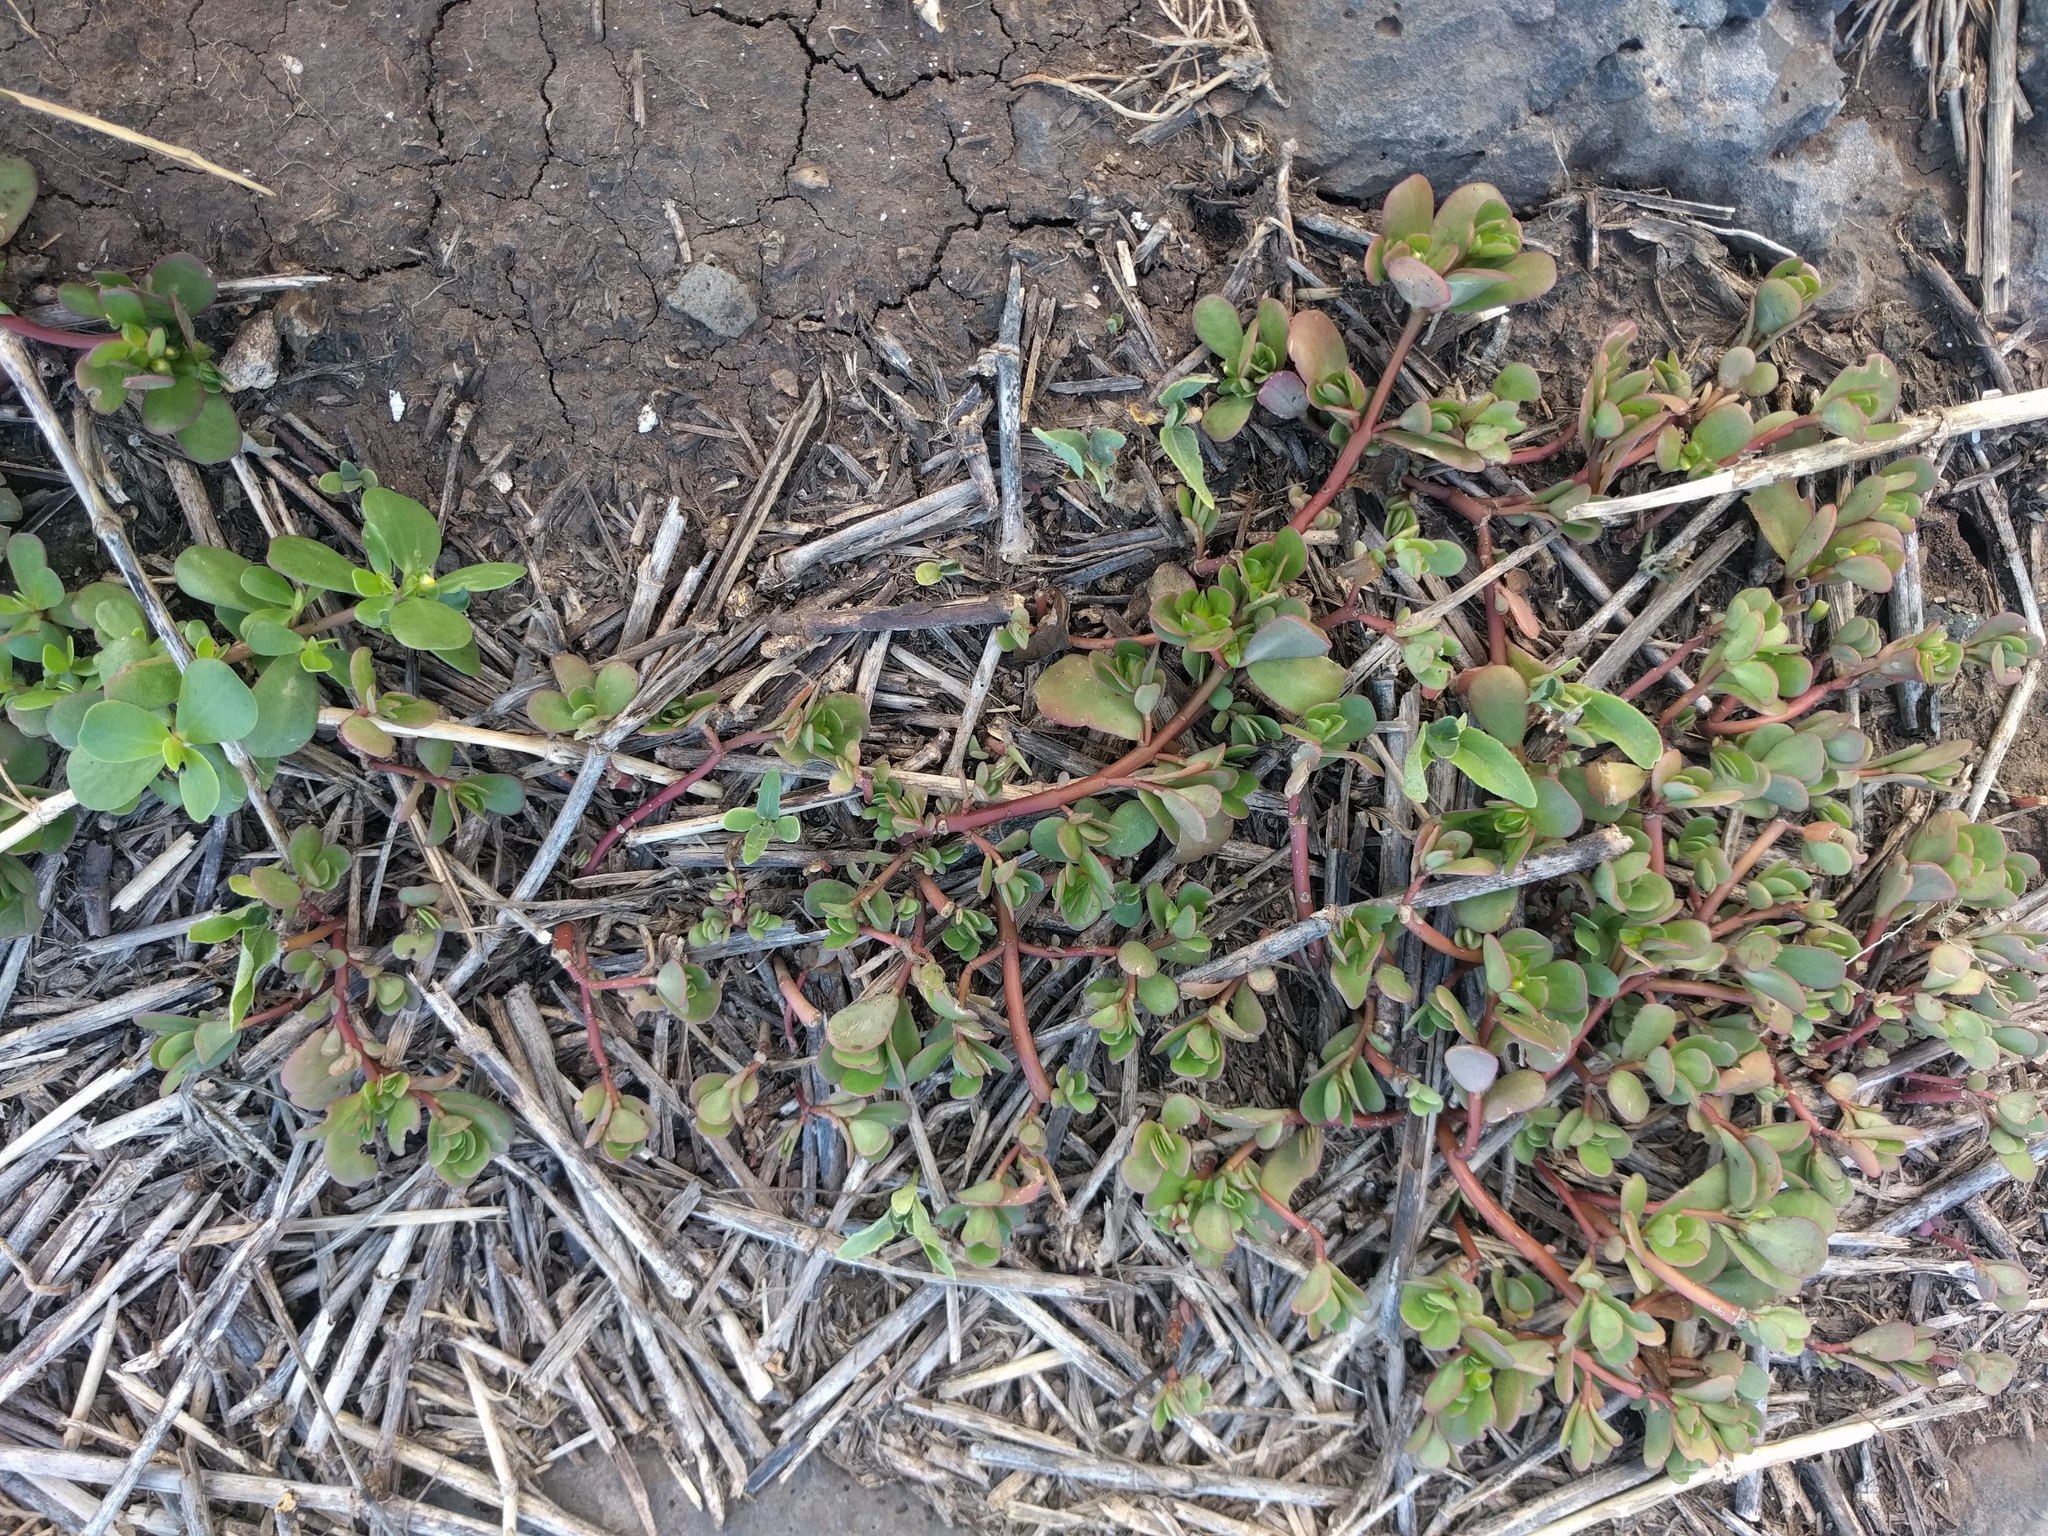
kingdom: Plantae
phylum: Tracheophyta
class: Magnoliopsida
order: Caryophyllales
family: Portulacaceae
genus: Portulaca
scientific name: Portulaca oleracea
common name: Common purslane
